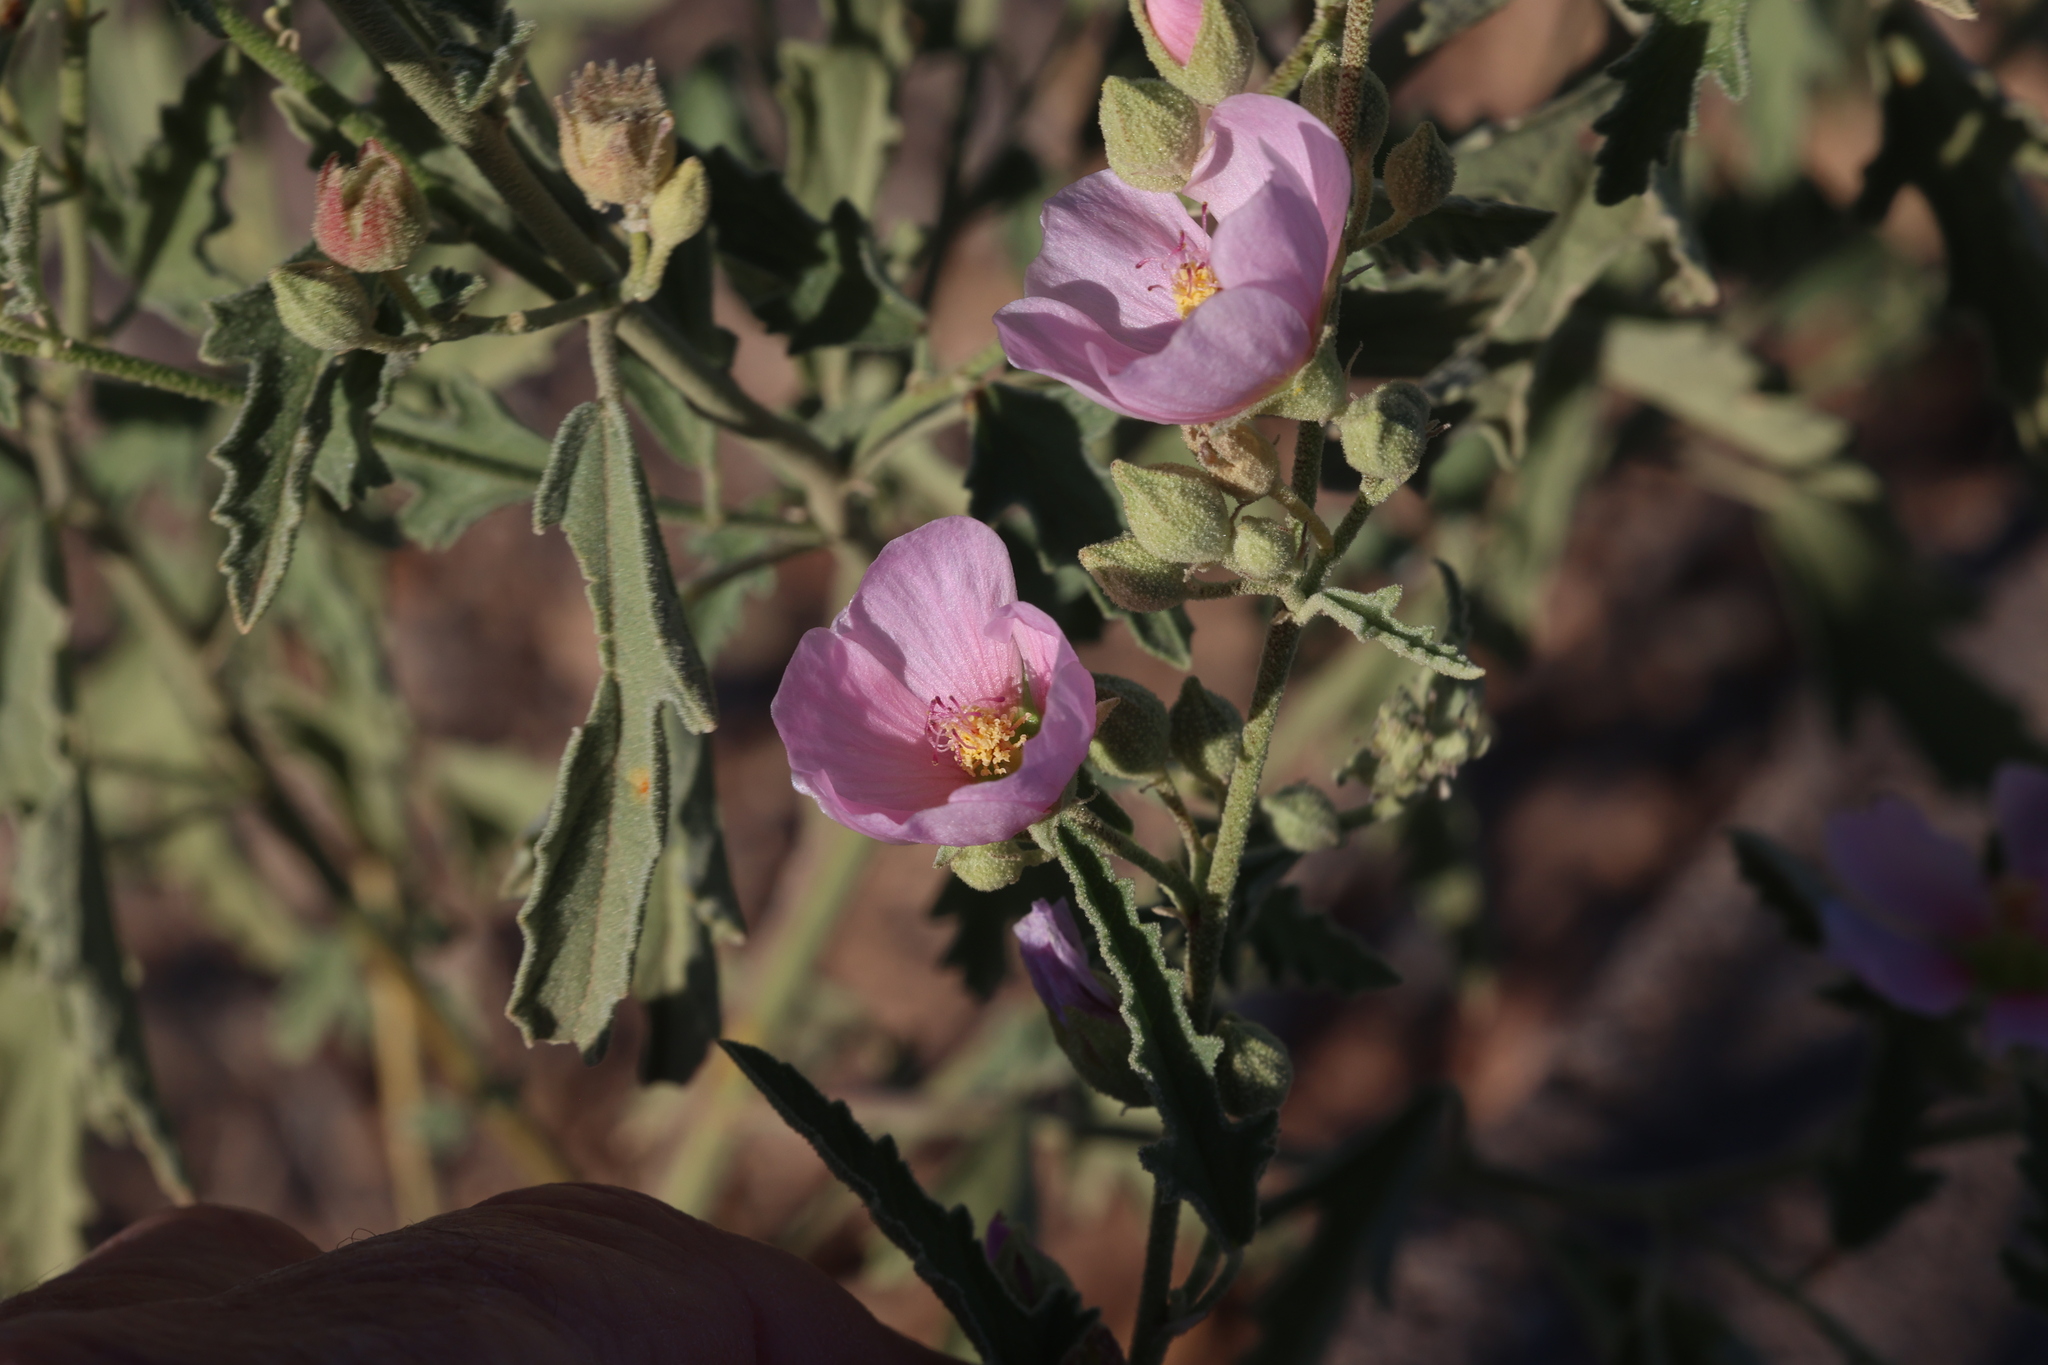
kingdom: Plantae
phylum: Tracheophyta
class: Magnoliopsida
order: Malvales
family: Malvaceae
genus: Sphaeralcea
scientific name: Sphaeralcea angustifolia
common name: Copper globe-mallow
